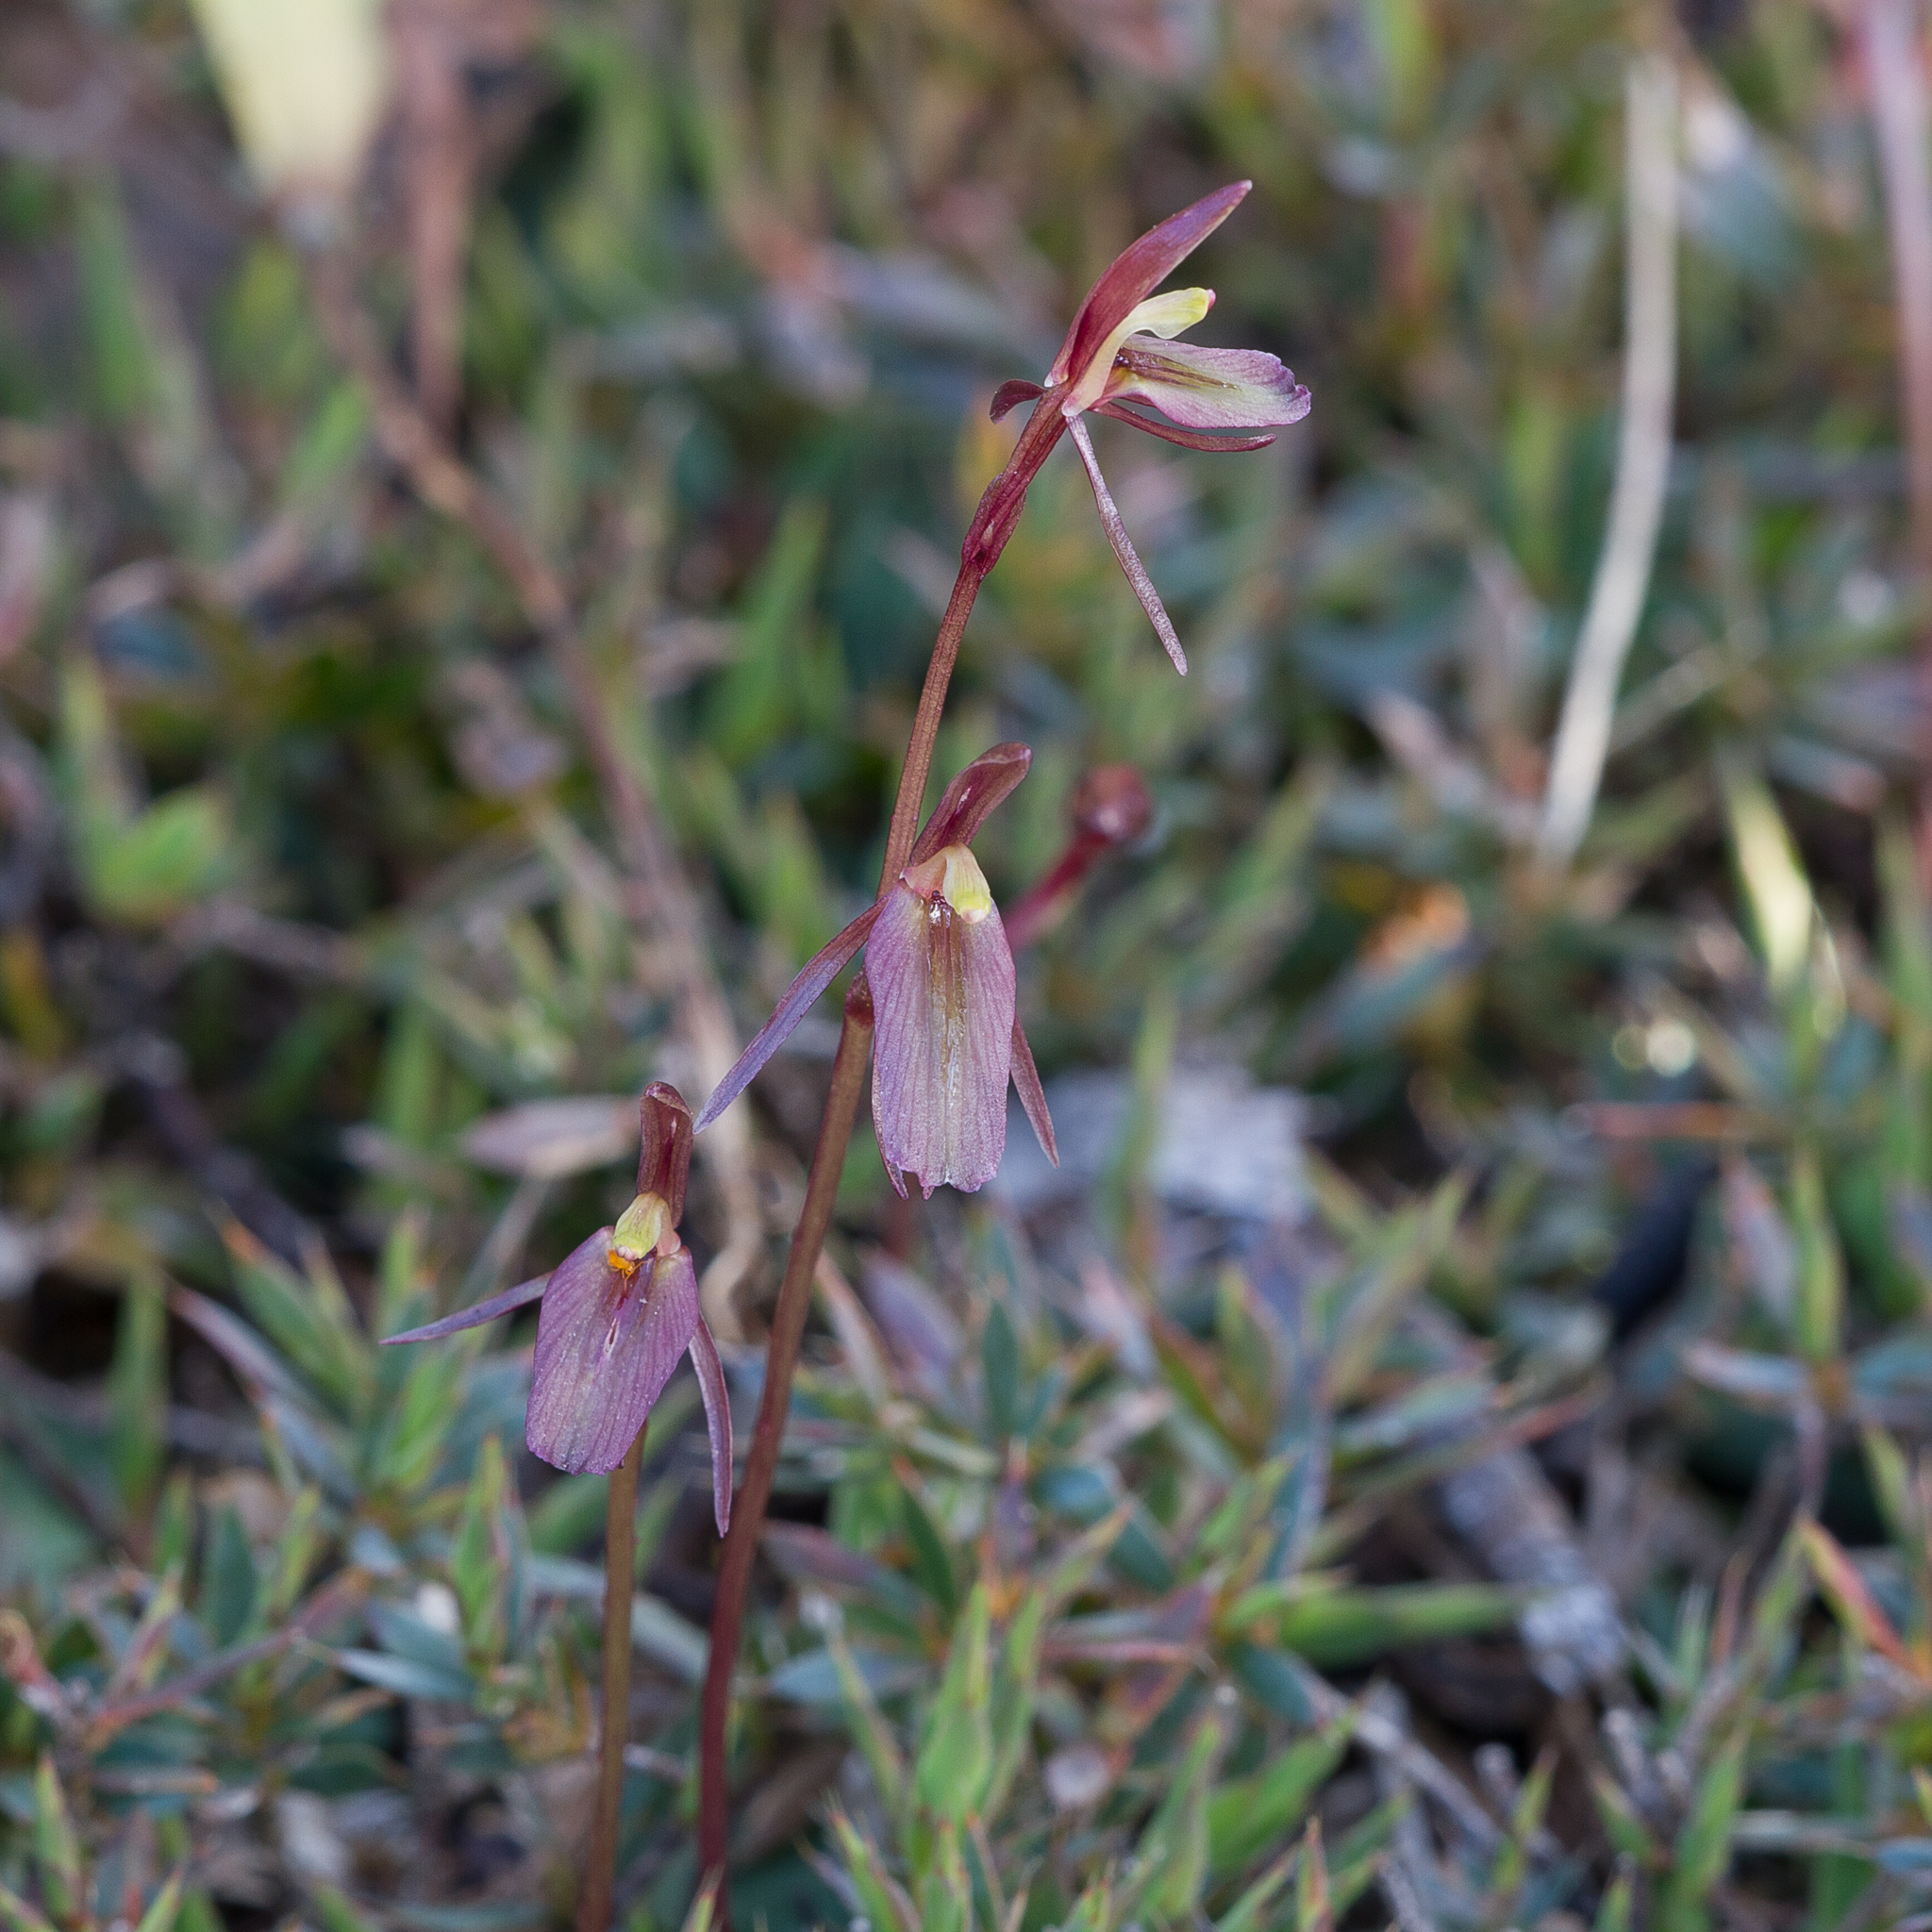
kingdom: Plantae
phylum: Tracheophyta
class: Liliopsida
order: Asparagales
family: Orchidaceae
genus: Cyrtostylis
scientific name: Cyrtostylis reniformis
